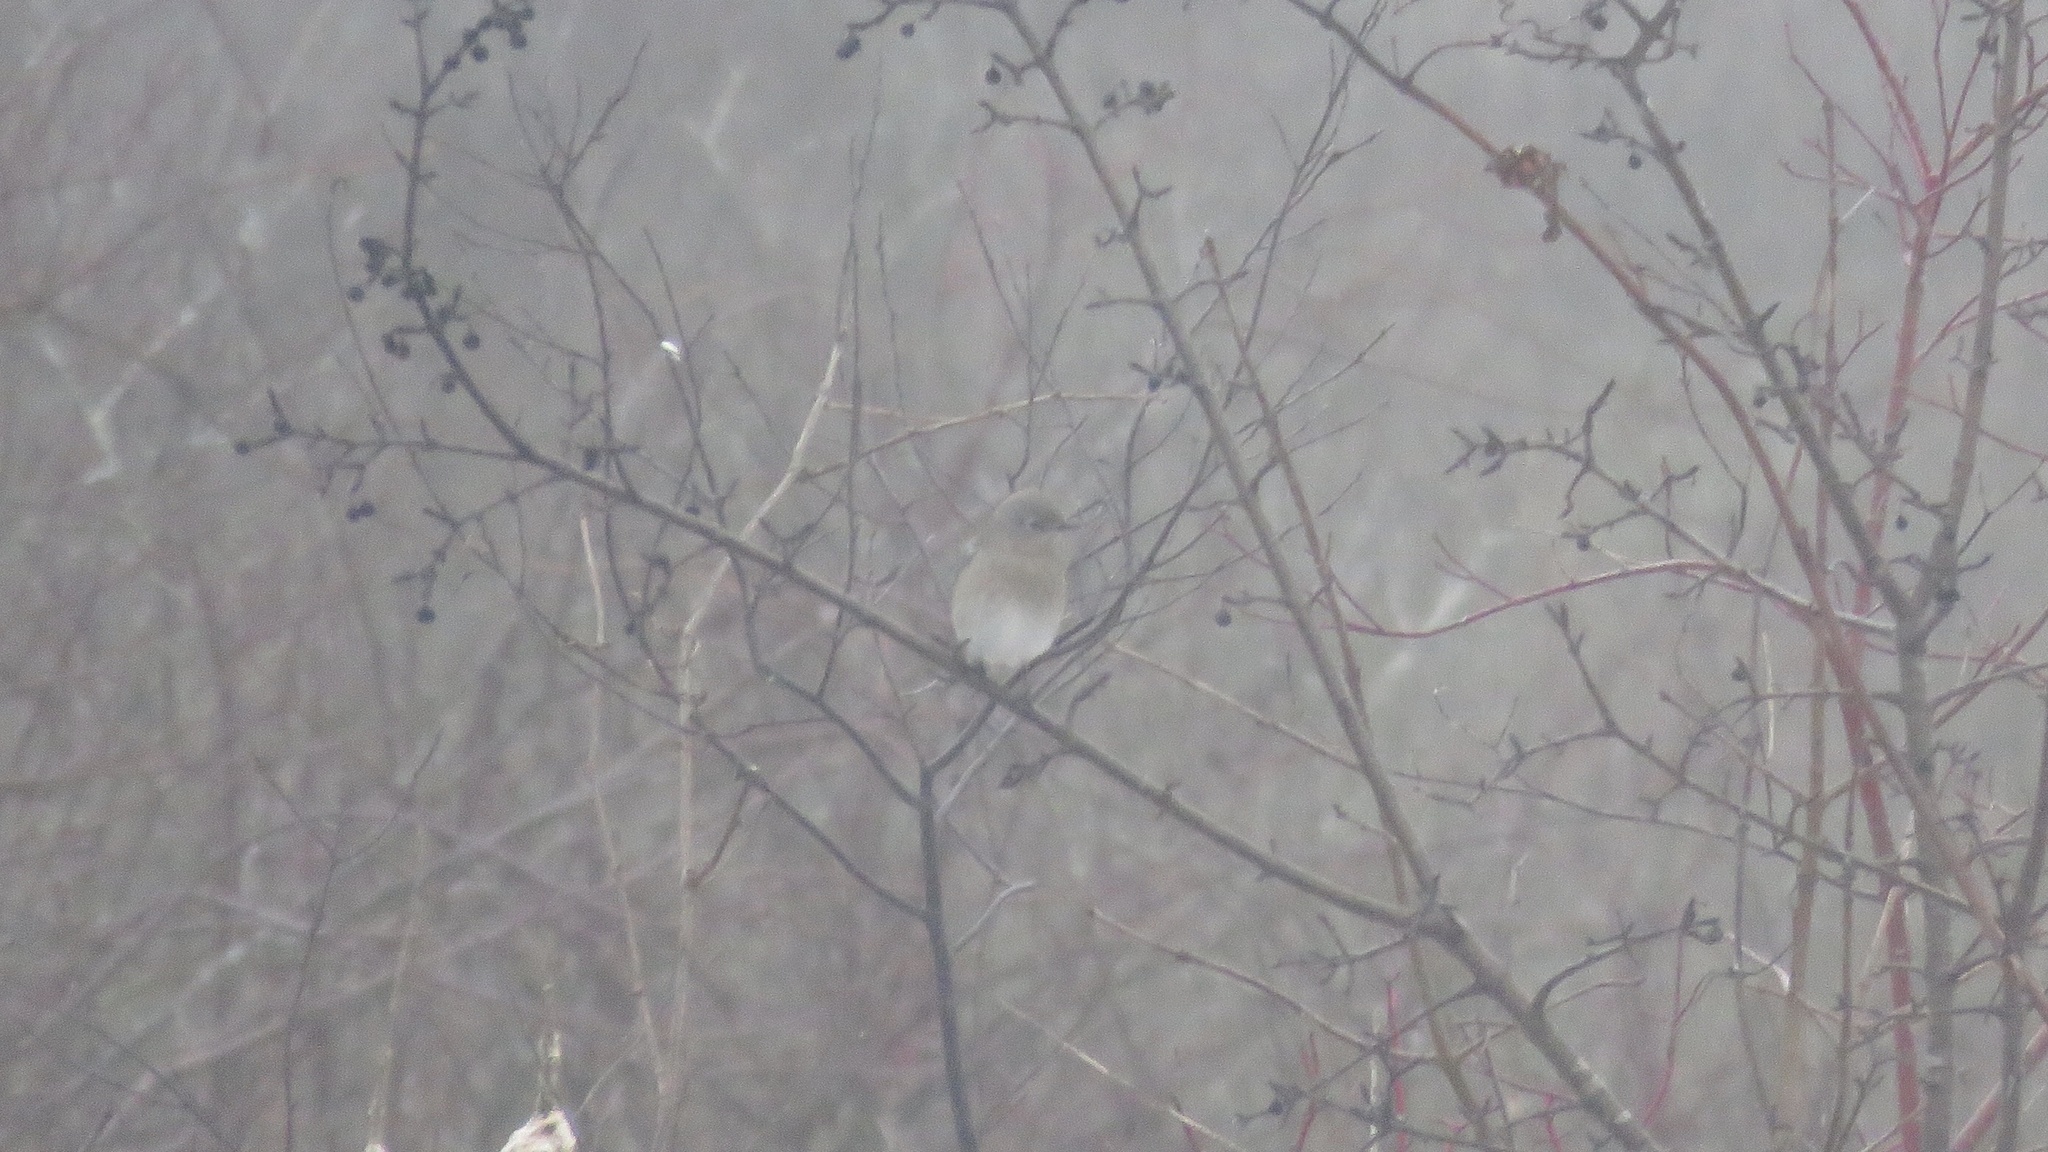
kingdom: Animalia
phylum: Chordata
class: Aves
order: Passeriformes
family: Turdidae
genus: Sialia
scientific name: Sialia currucoides
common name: Mountain bluebird
